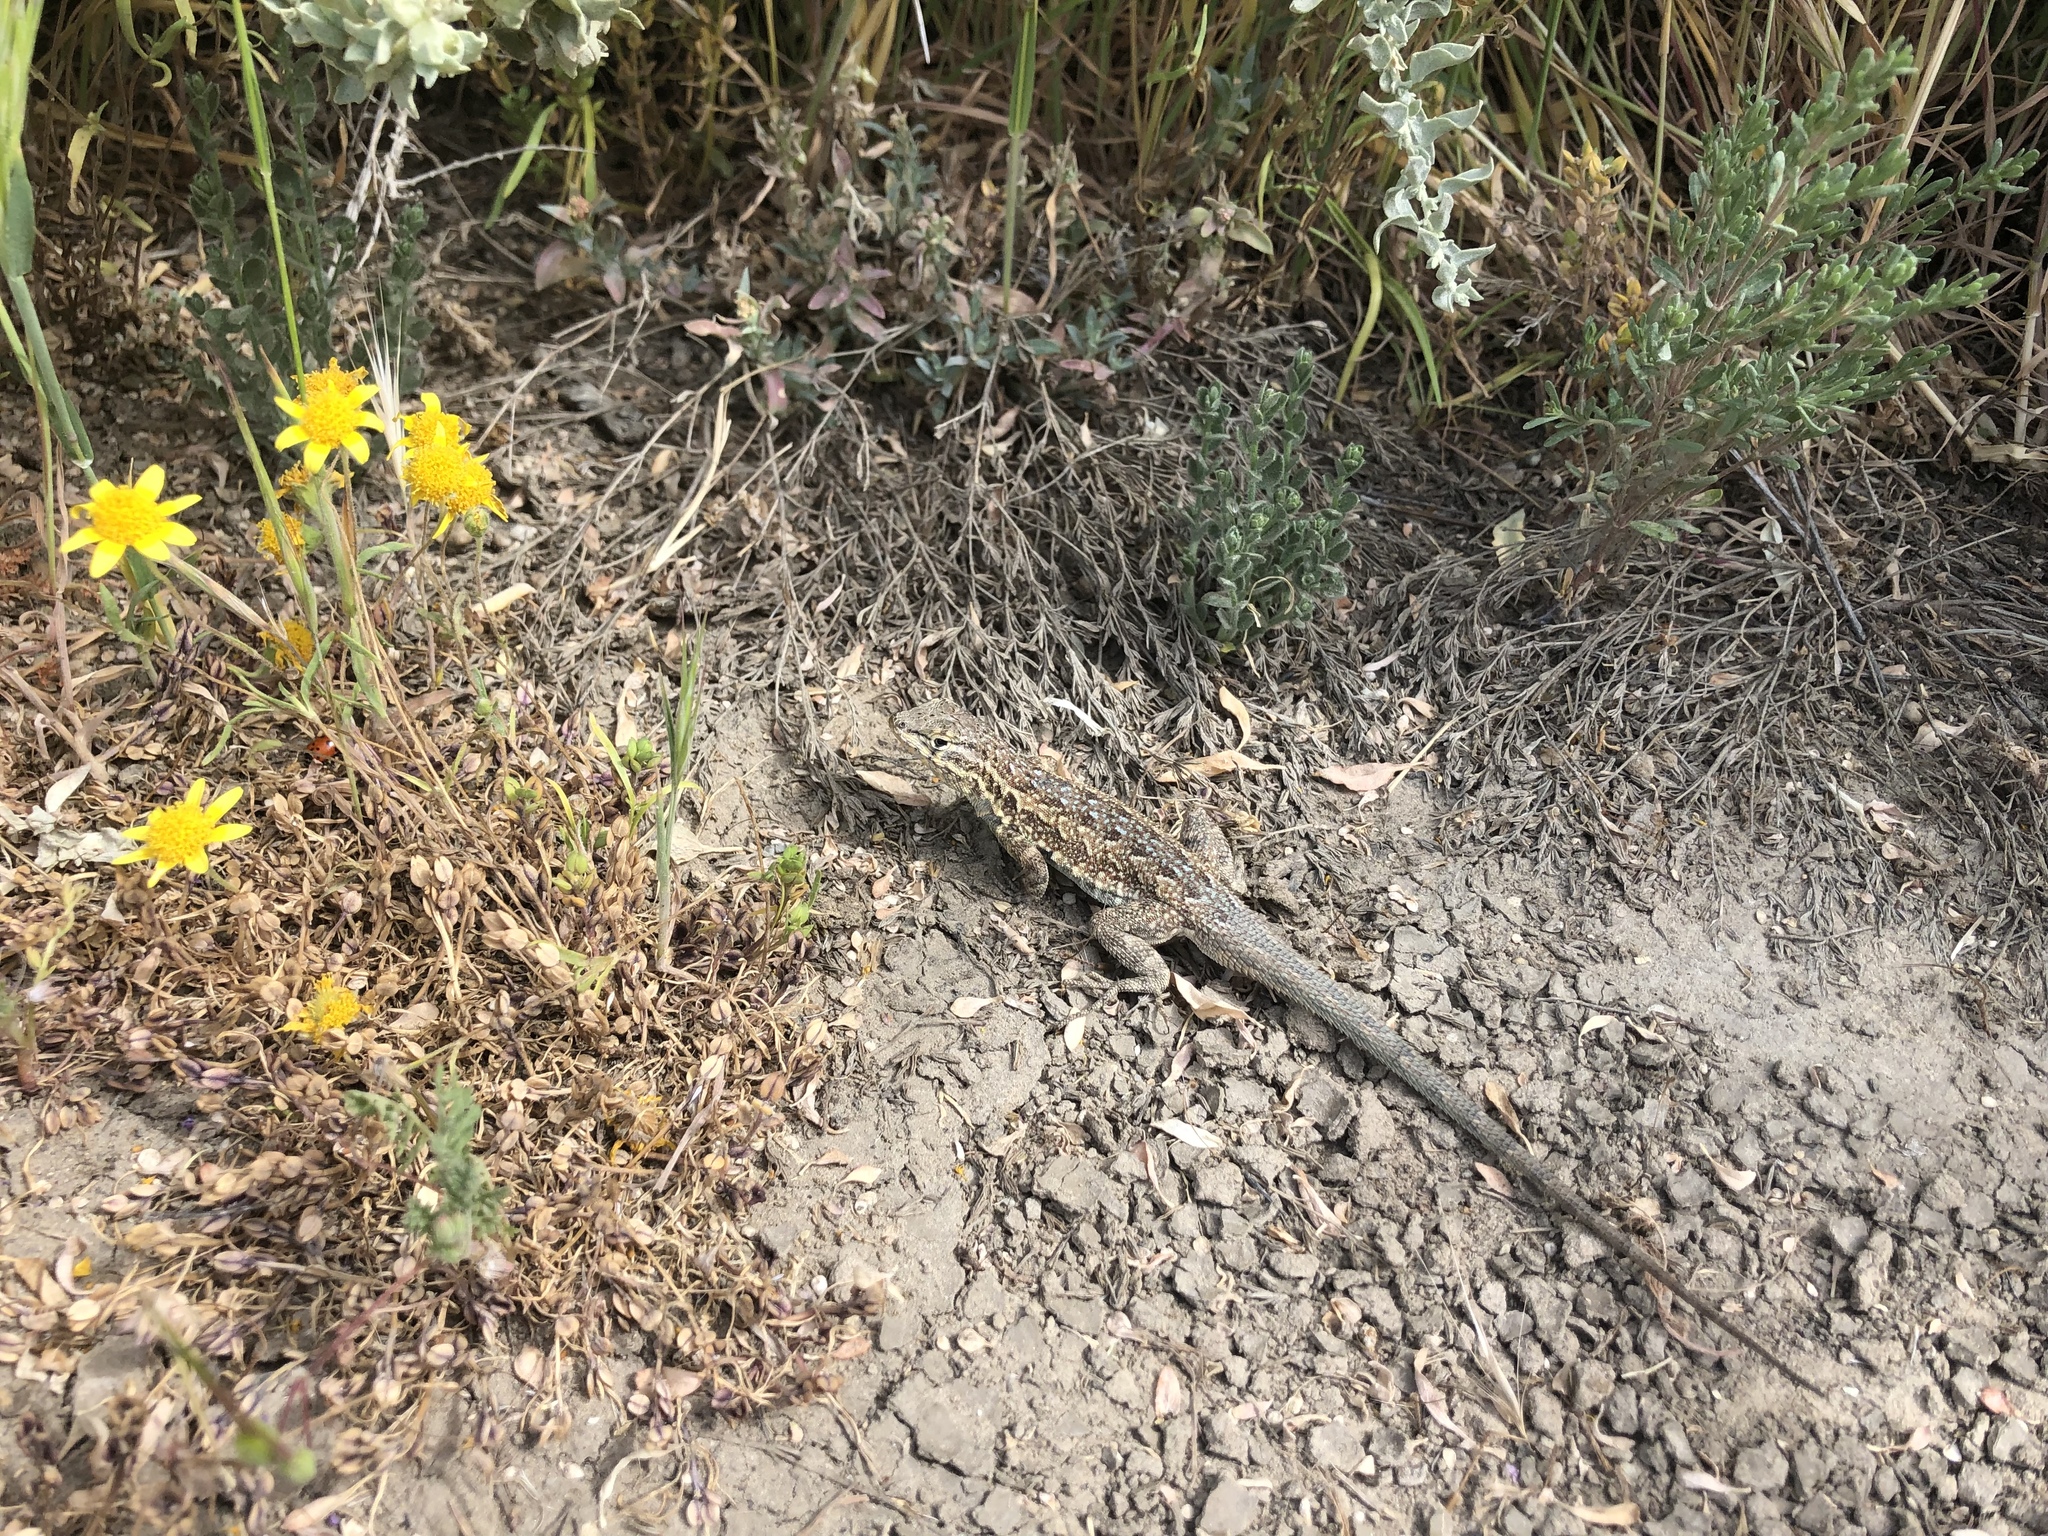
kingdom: Animalia
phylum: Chordata
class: Squamata
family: Phrynosomatidae
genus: Uta
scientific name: Uta stansburiana
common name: Side-blotched lizard
